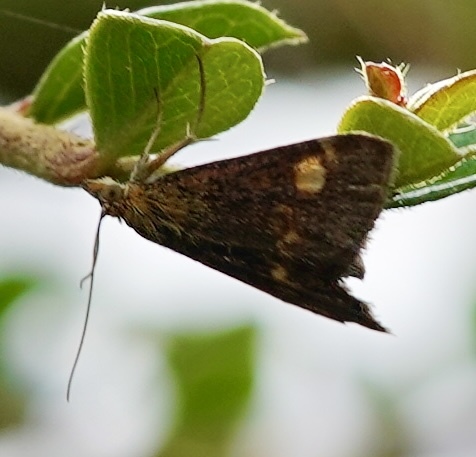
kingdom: Animalia
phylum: Arthropoda
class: Insecta
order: Lepidoptera
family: Crambidae
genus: Pyrausta
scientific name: Pyrausta aurata
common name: Small purple & gold
